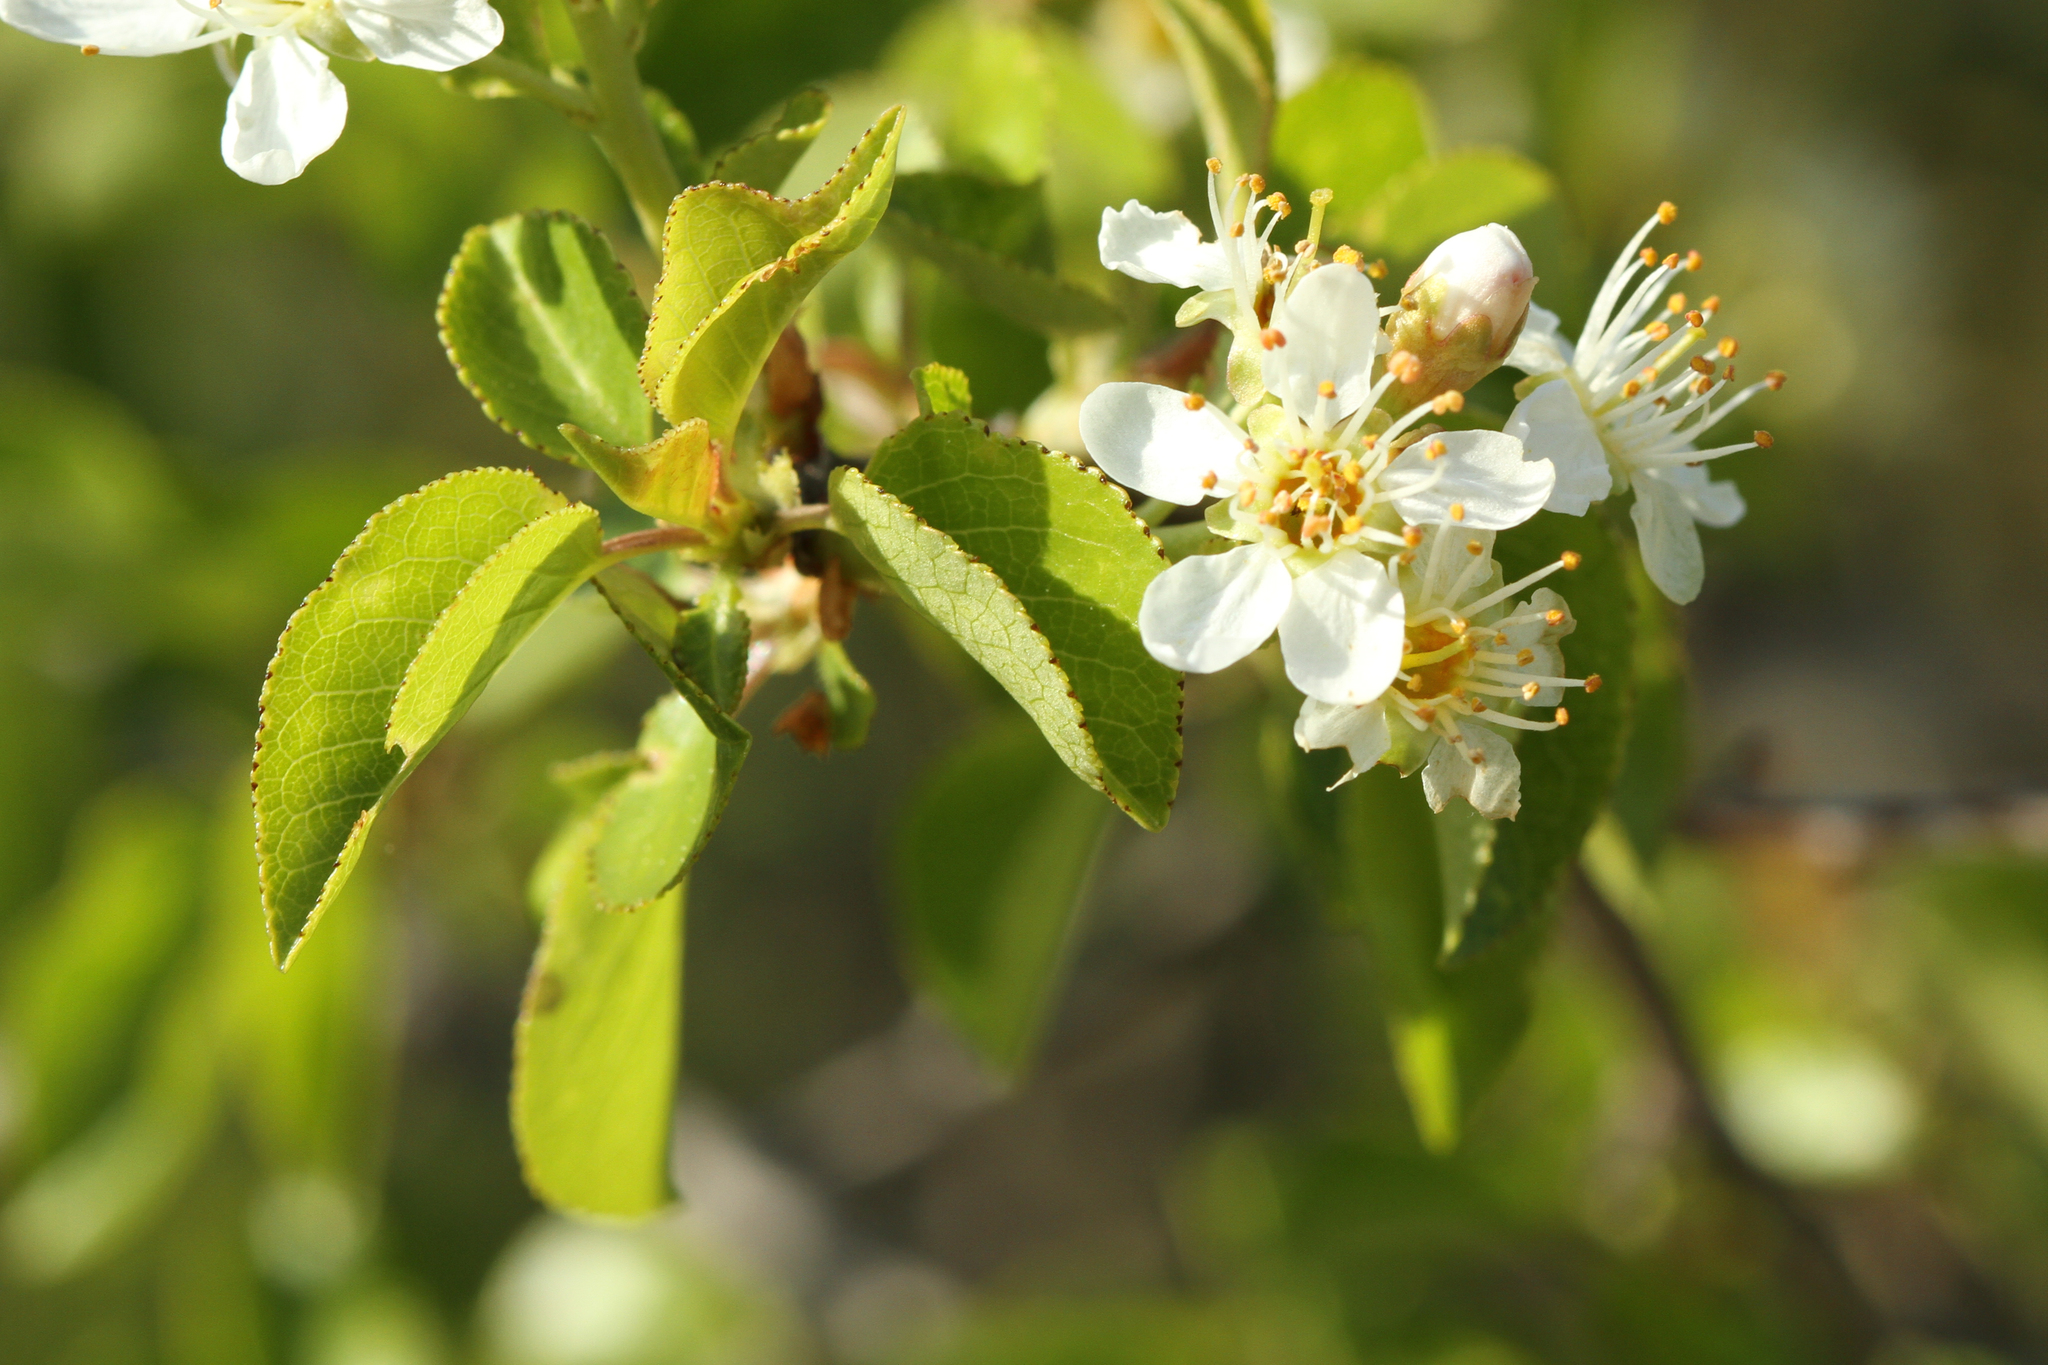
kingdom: Plantae
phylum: Tracheophyta
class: Magnoliopsida
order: Rosales
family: Rosaceae
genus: Prunus
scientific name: Prunus mahaleb
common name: Mahaleb cherry
